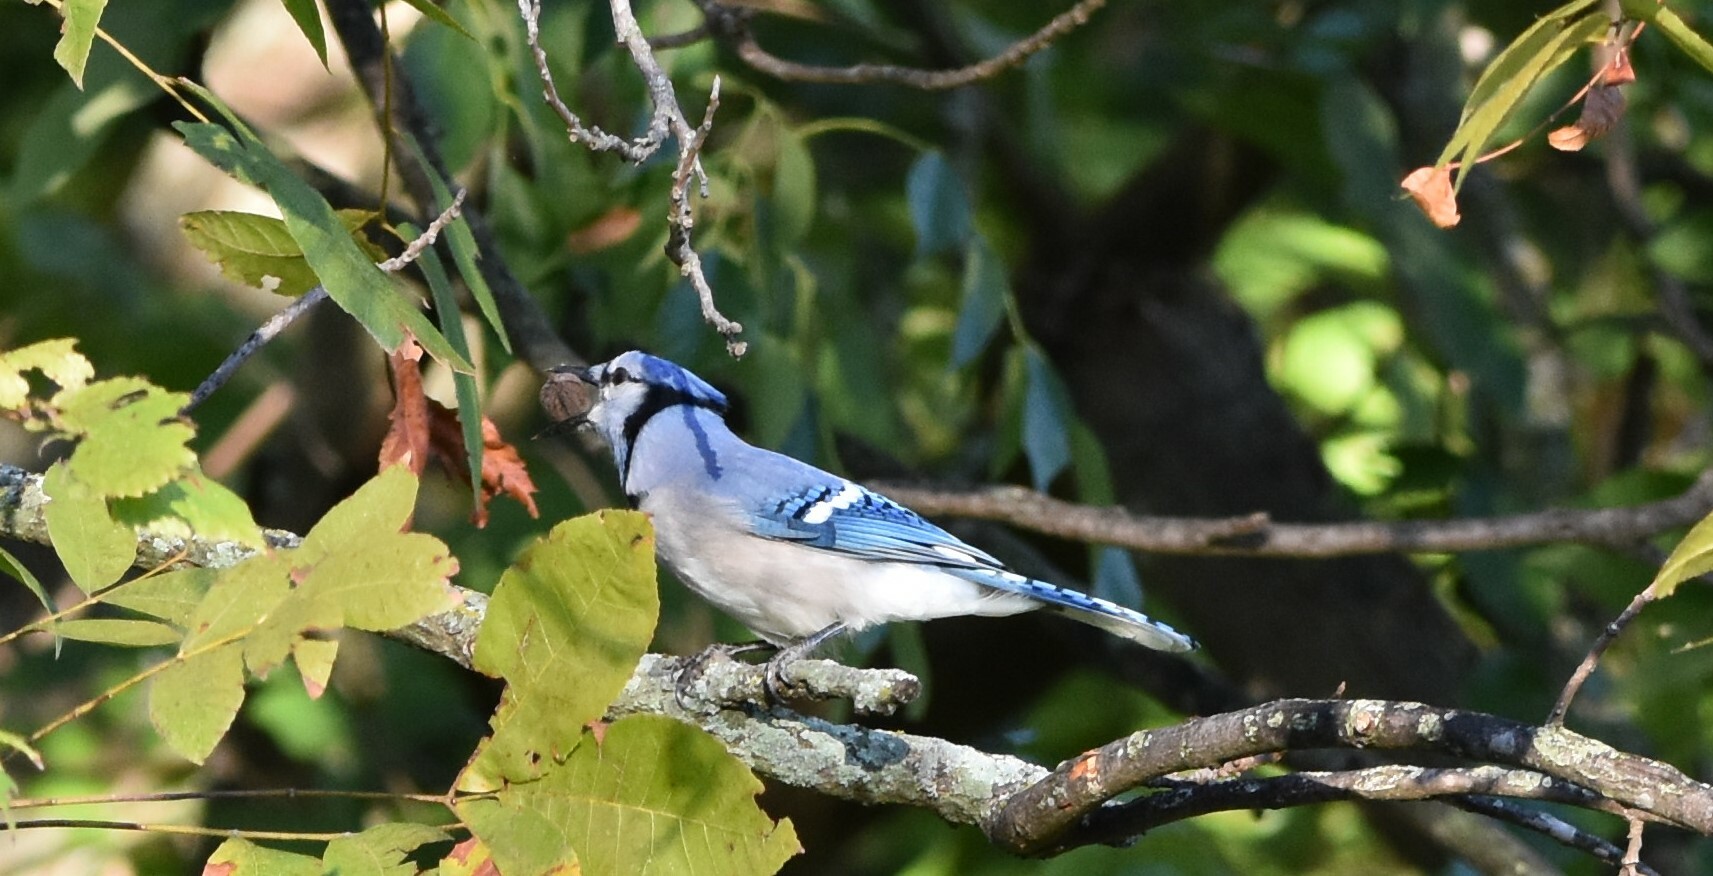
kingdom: Animalia
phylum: Chordata
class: Aves
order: Passeriformes
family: Corvidae
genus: Cyanocitta
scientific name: Cyanocitta cristata
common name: Blue jay
